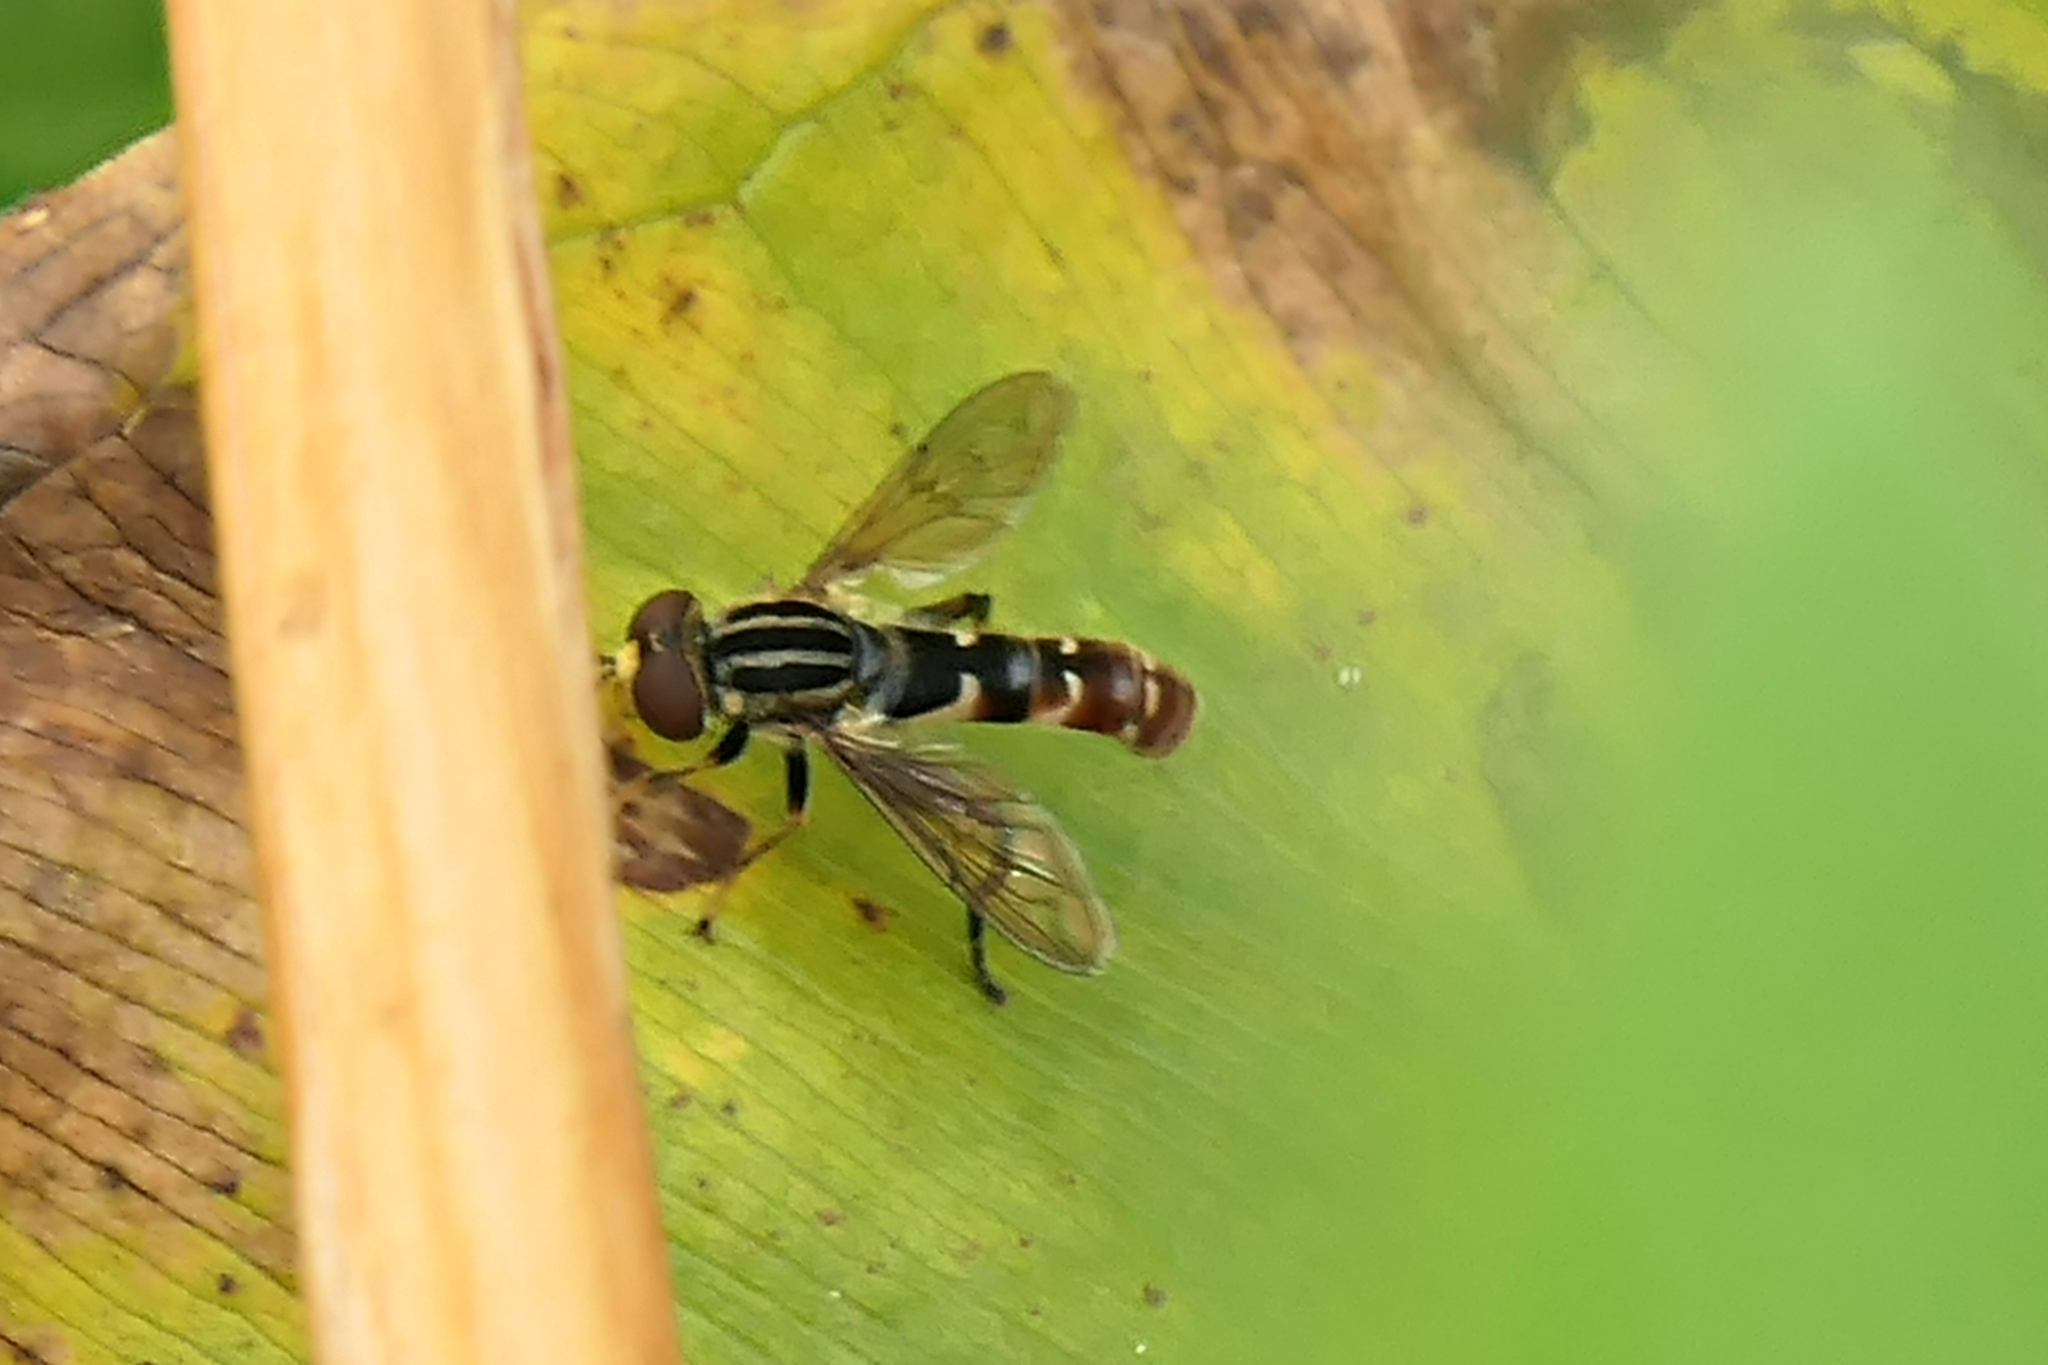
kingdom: Animalia
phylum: Arthropoda
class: Insecta
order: Diptera
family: Syrphidae
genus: Anasimyia
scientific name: Anasimyia chrysostomus
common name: Lump-legged swamp fly
